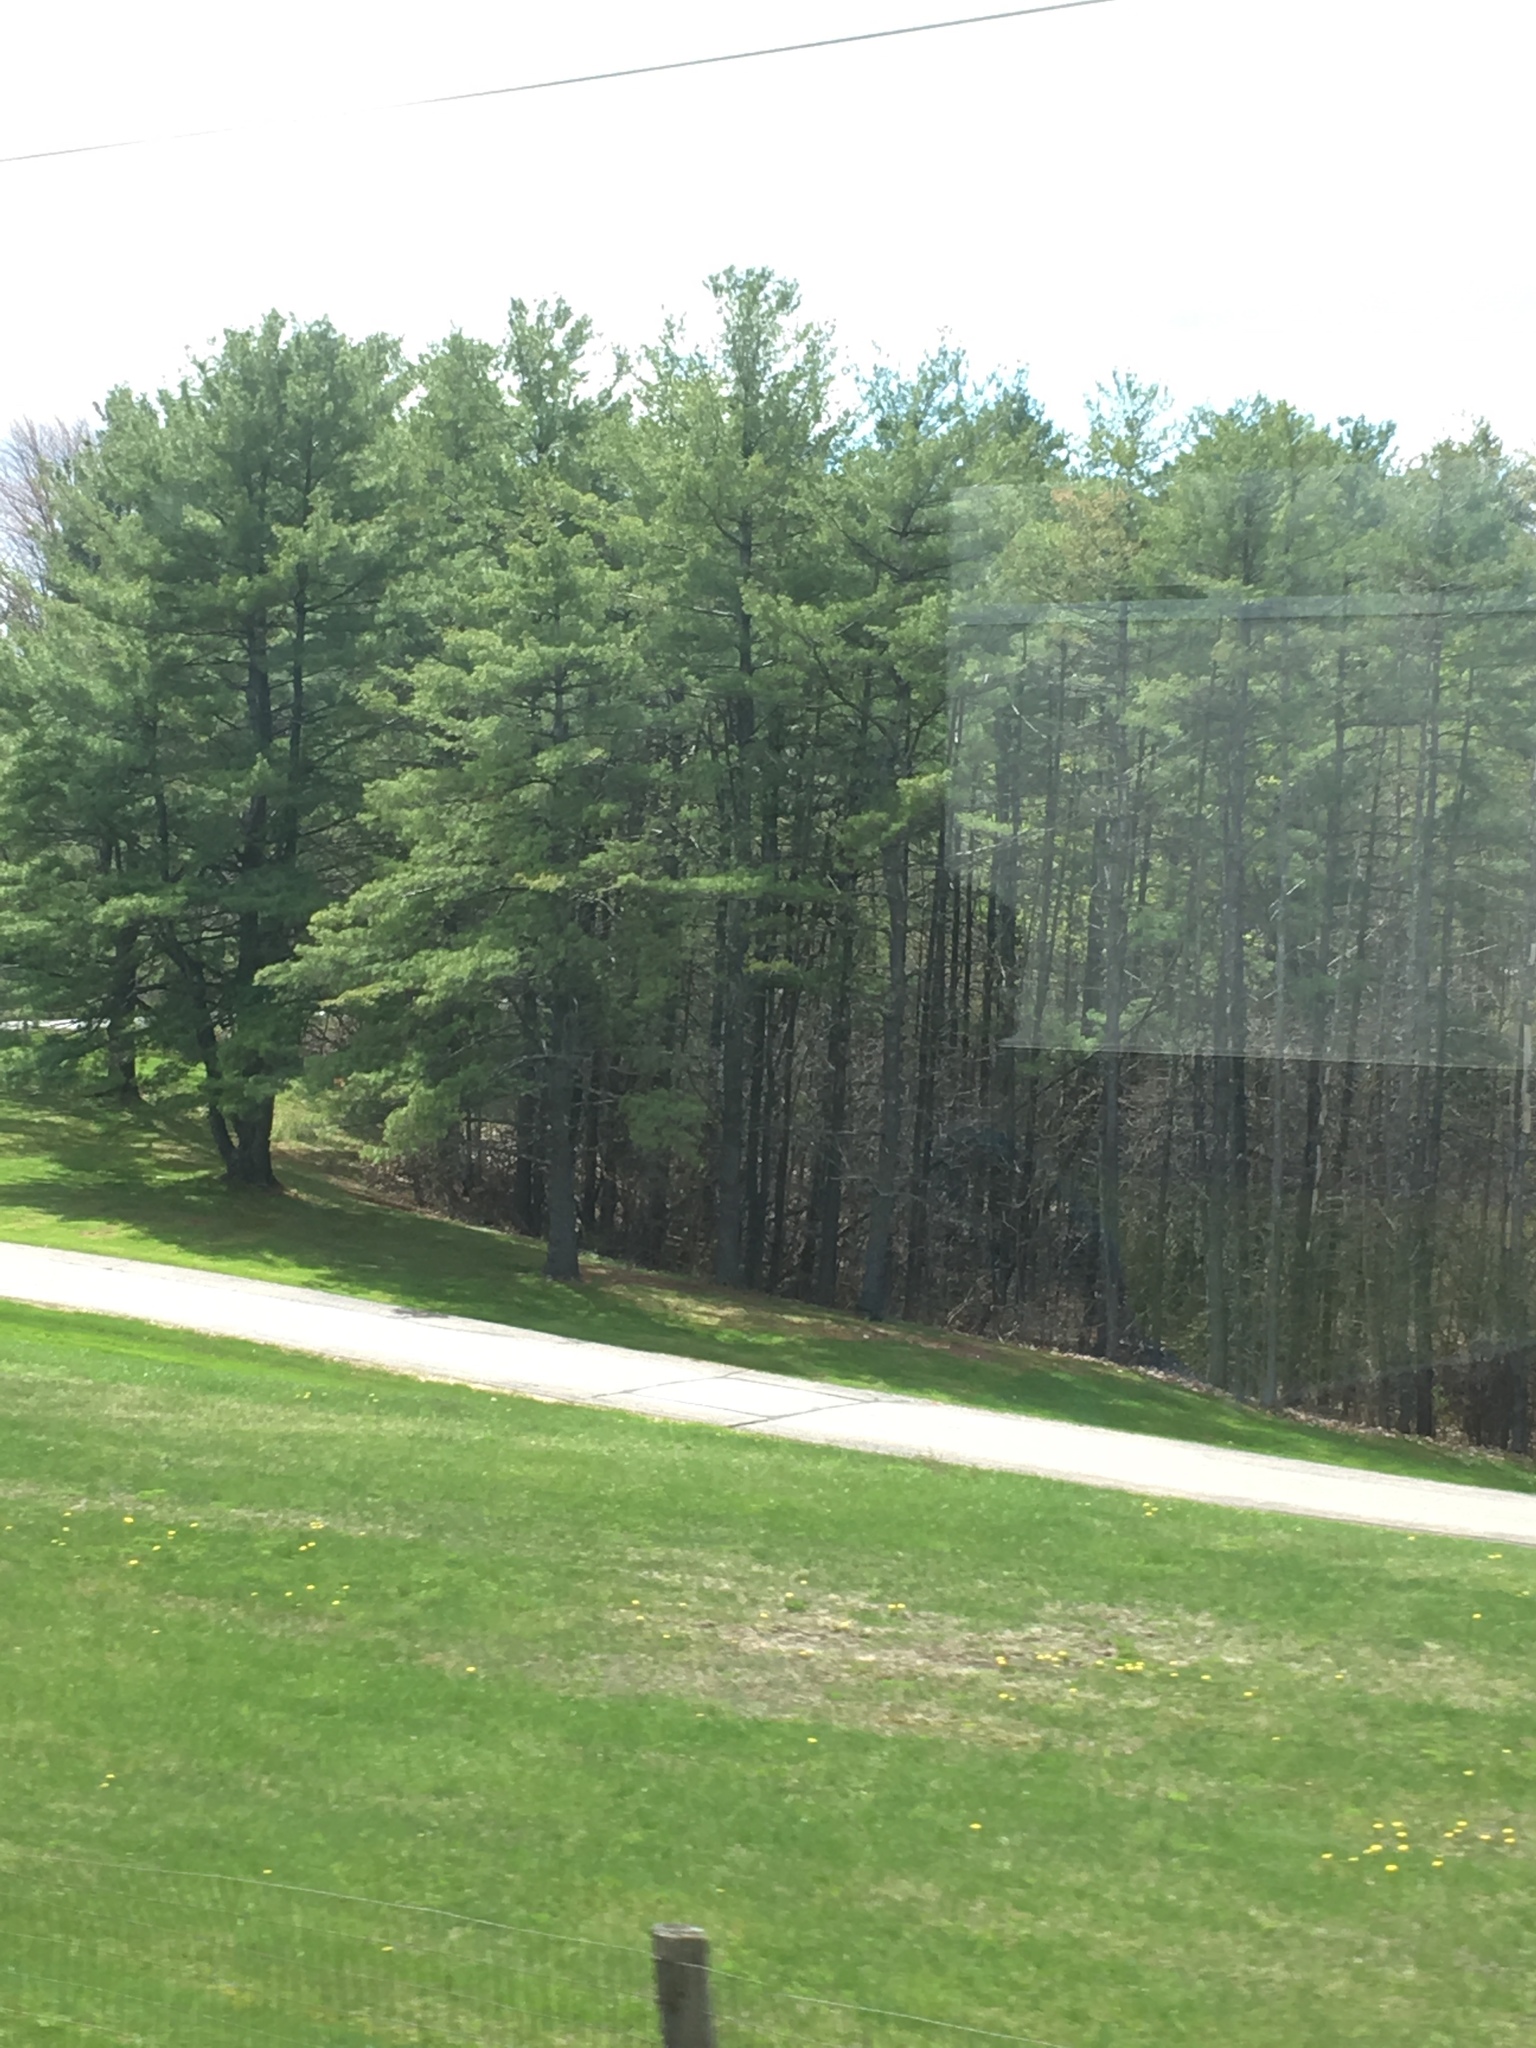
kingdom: Plantae
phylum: Tracheophyta
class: Pinopsida
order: Pinales
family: Pinaceae
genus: Pinus
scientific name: Pinus strobus
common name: Weymouth pine
